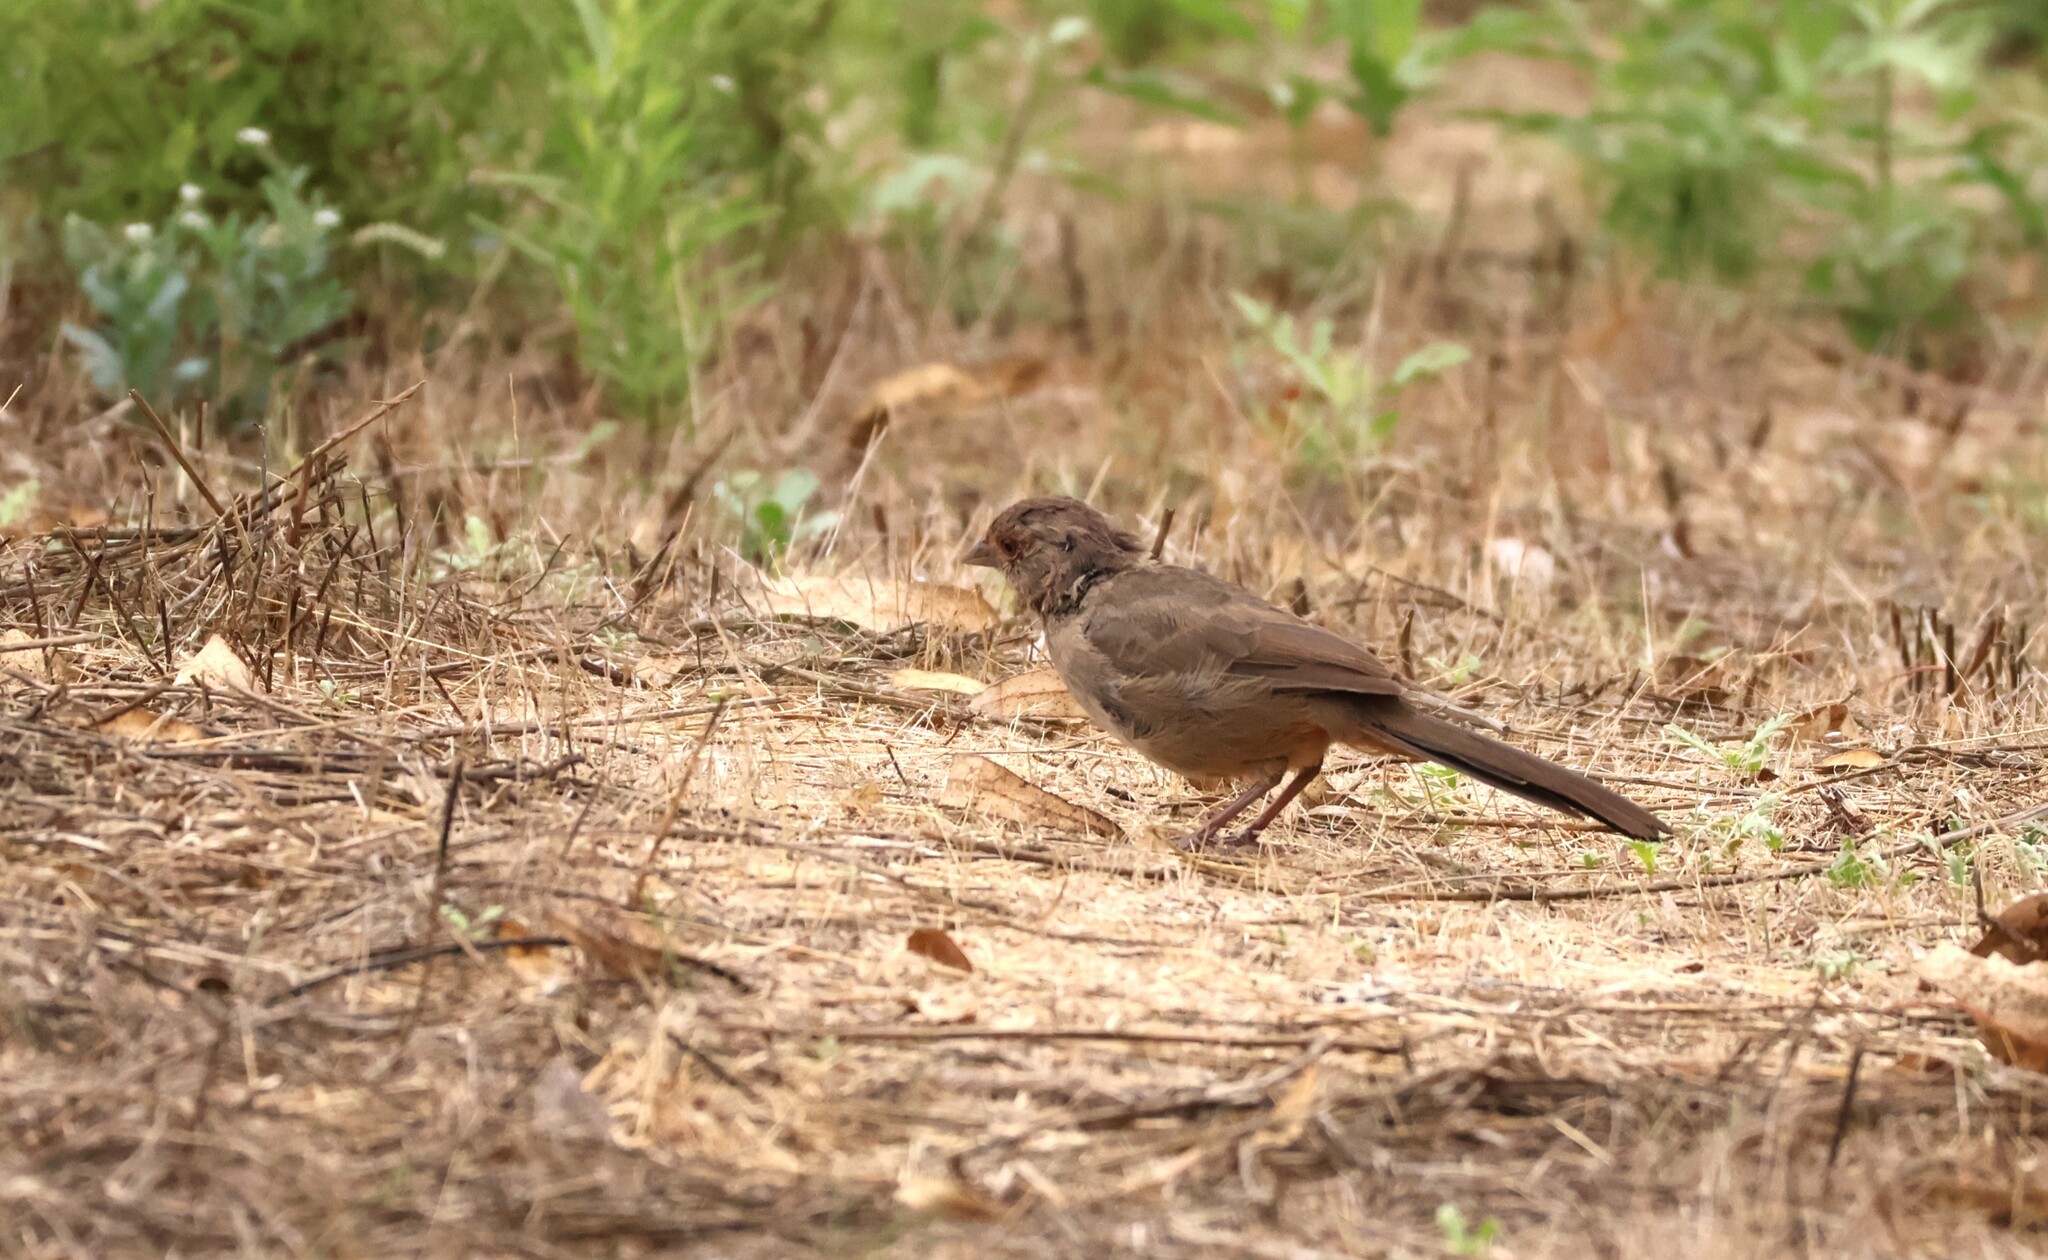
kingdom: Animalia
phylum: Chordata
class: Aves
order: Passeriformes
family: Passerellidae
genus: Melozone
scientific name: Melozone crissalis
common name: California towhee
